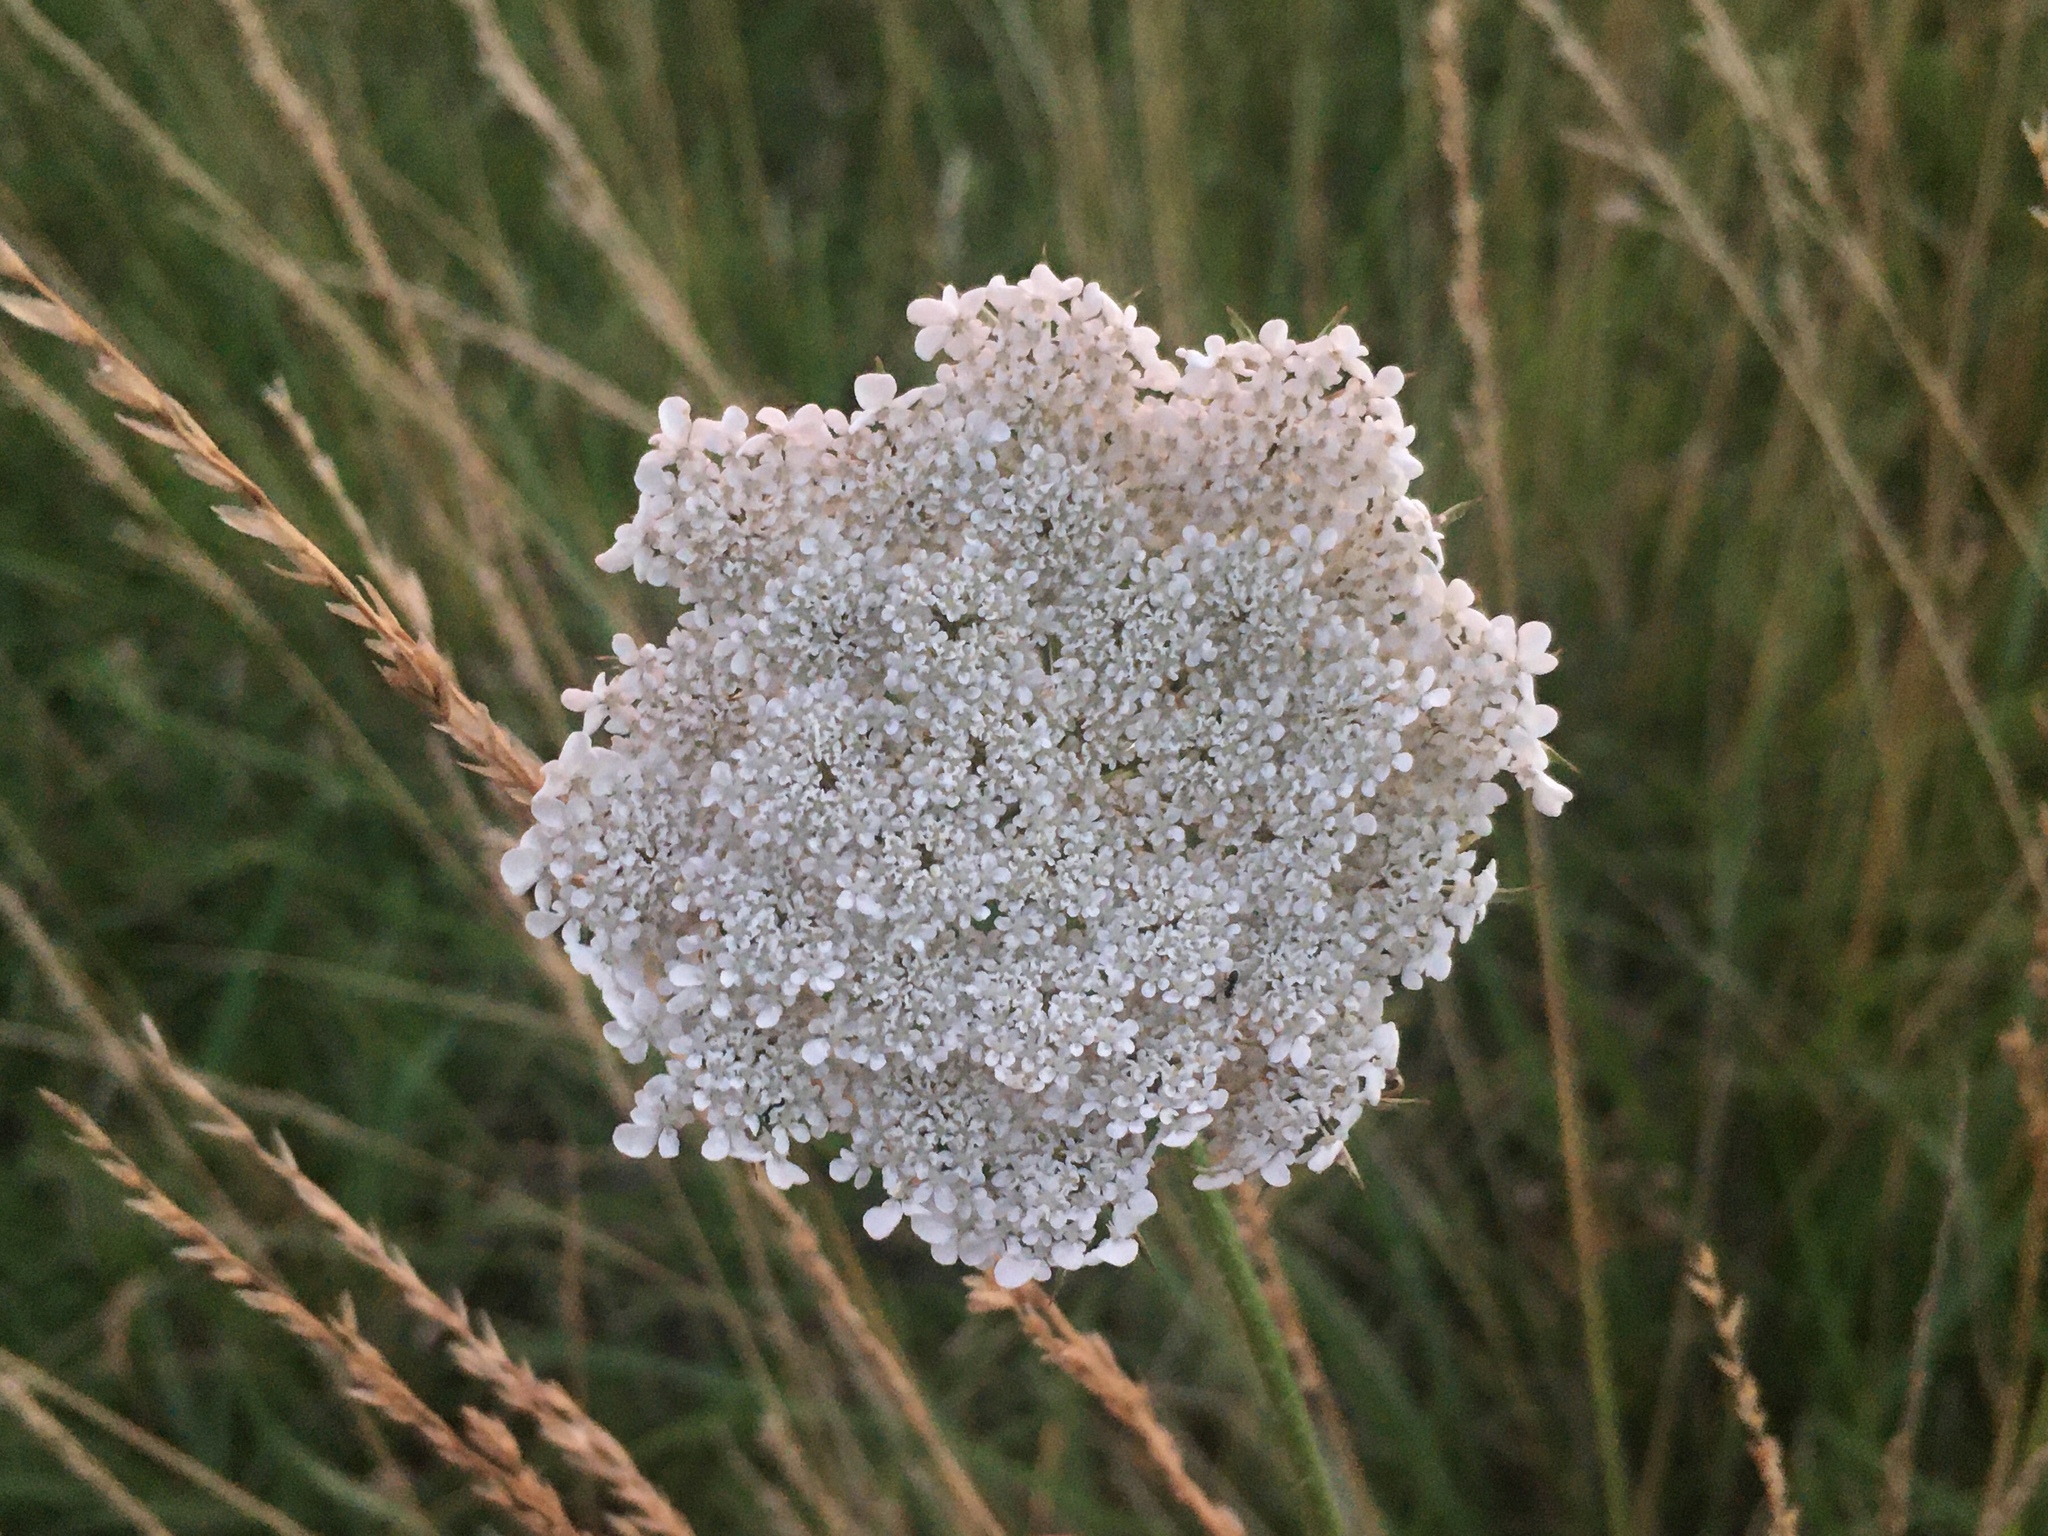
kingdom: Plantae
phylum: Tracheophyta
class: Magnoliopsida
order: Apiales
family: Apiaceae
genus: Daucus
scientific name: Daucus carota
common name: Wild carrot
